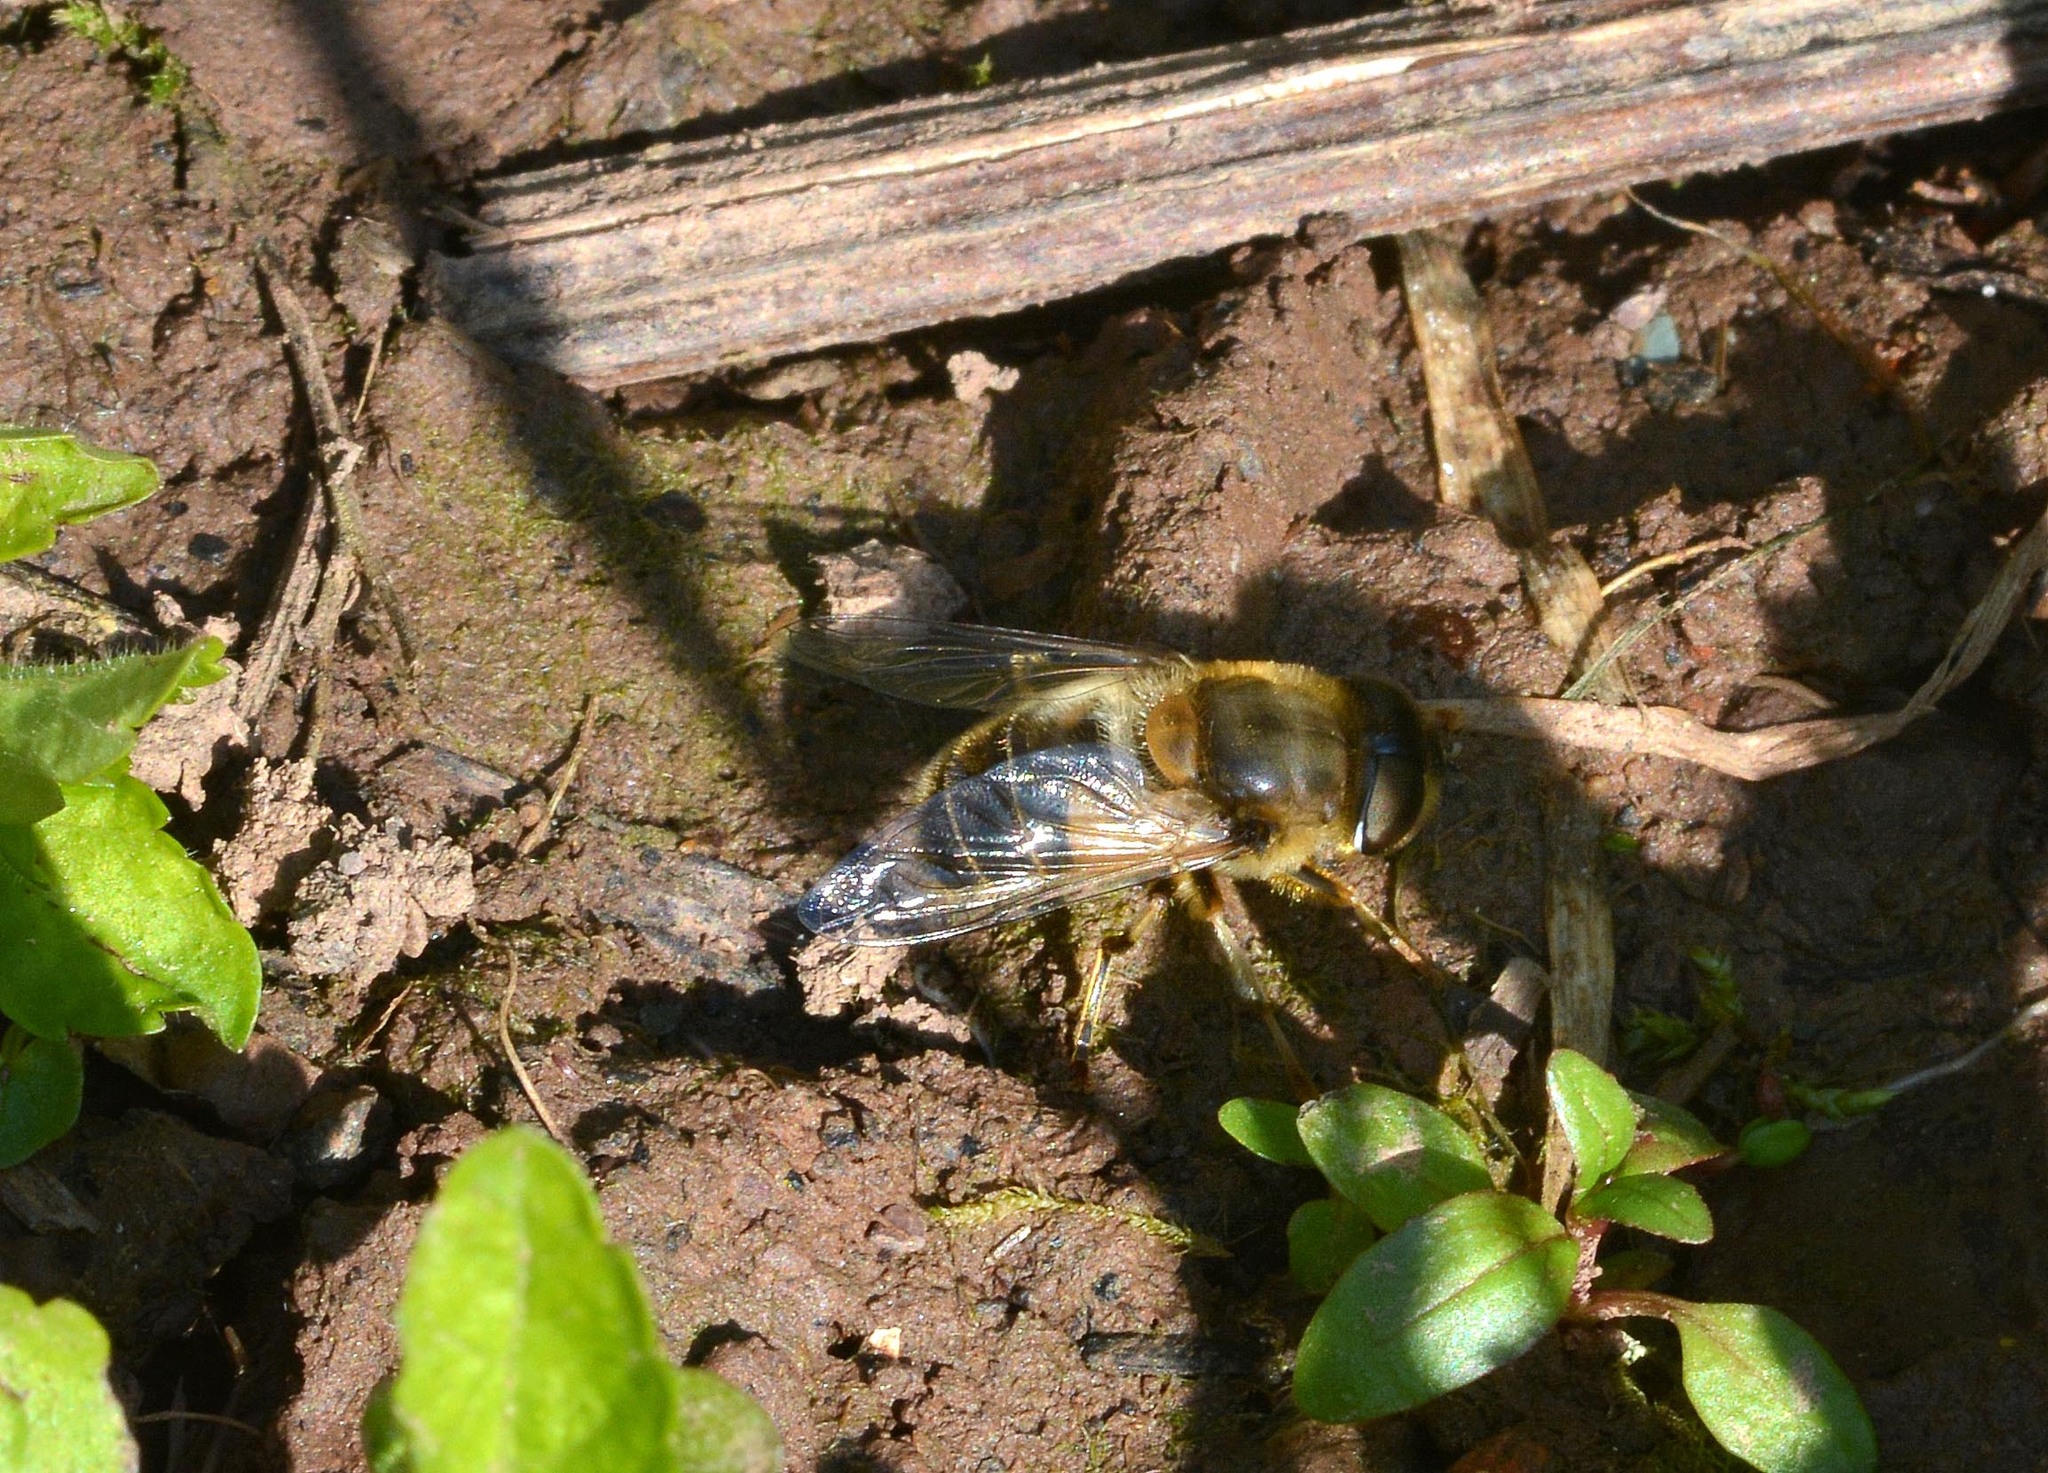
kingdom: Animalia
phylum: Arthropoda
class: Insecta
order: Diptera
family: Syrphidae
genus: Eristalis
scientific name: Eristalis pertinax
